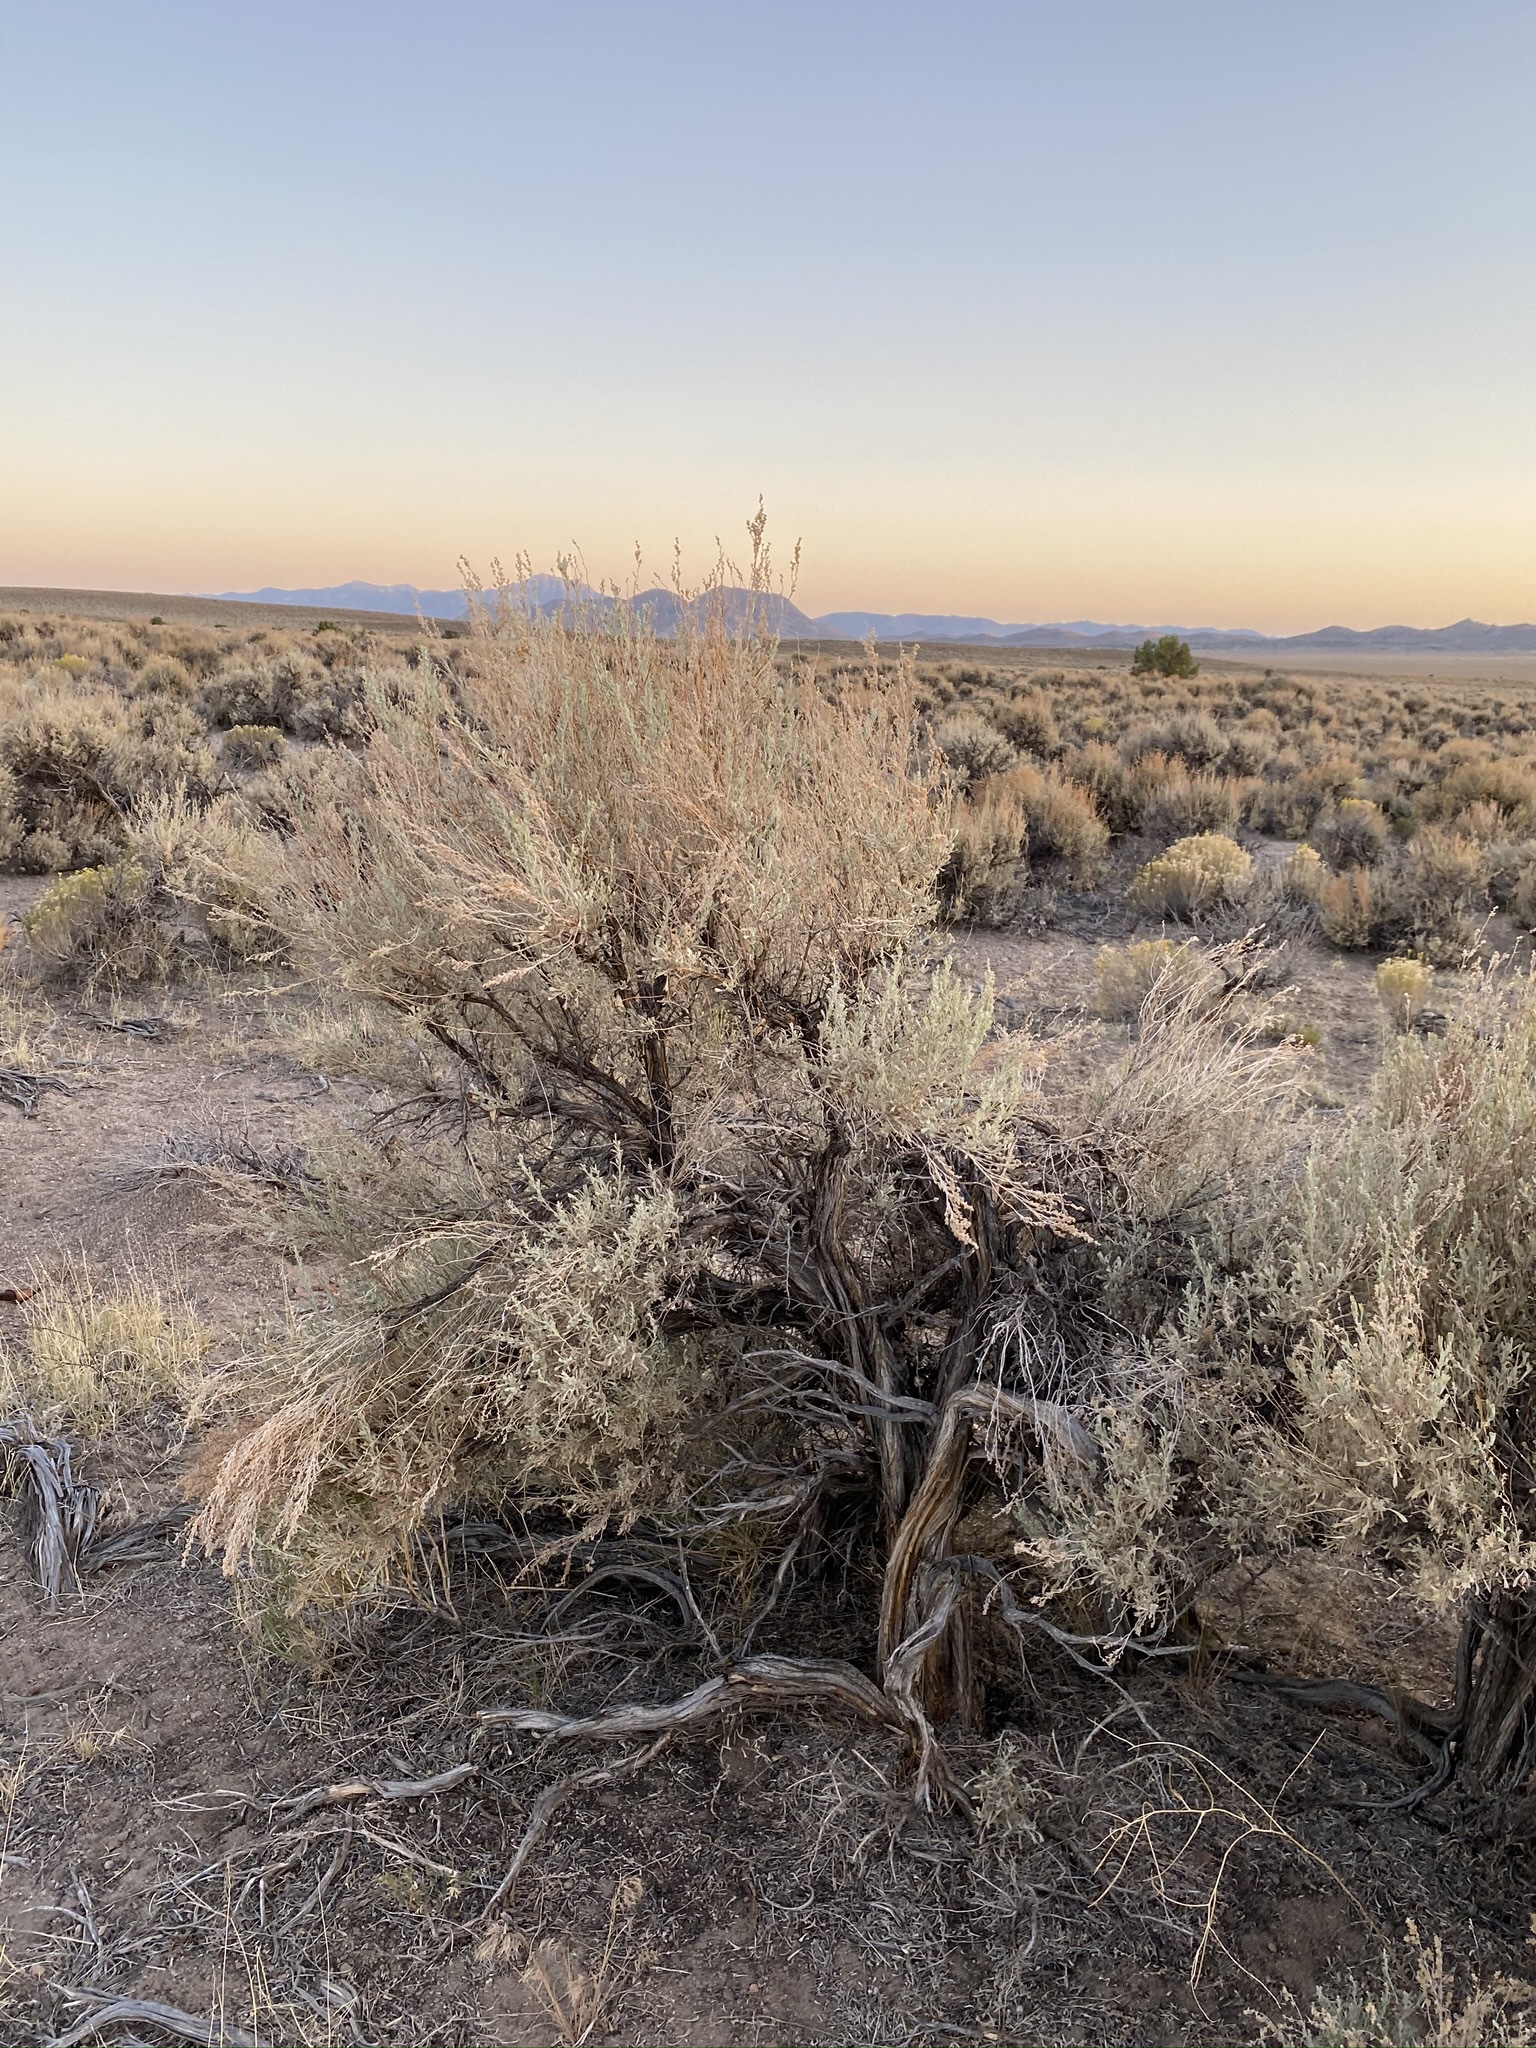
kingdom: Plantae
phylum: Tracheophyta
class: Magnoliopsida
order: Asterales
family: Asteraceae
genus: Artemisia
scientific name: Artemisia tridentata
